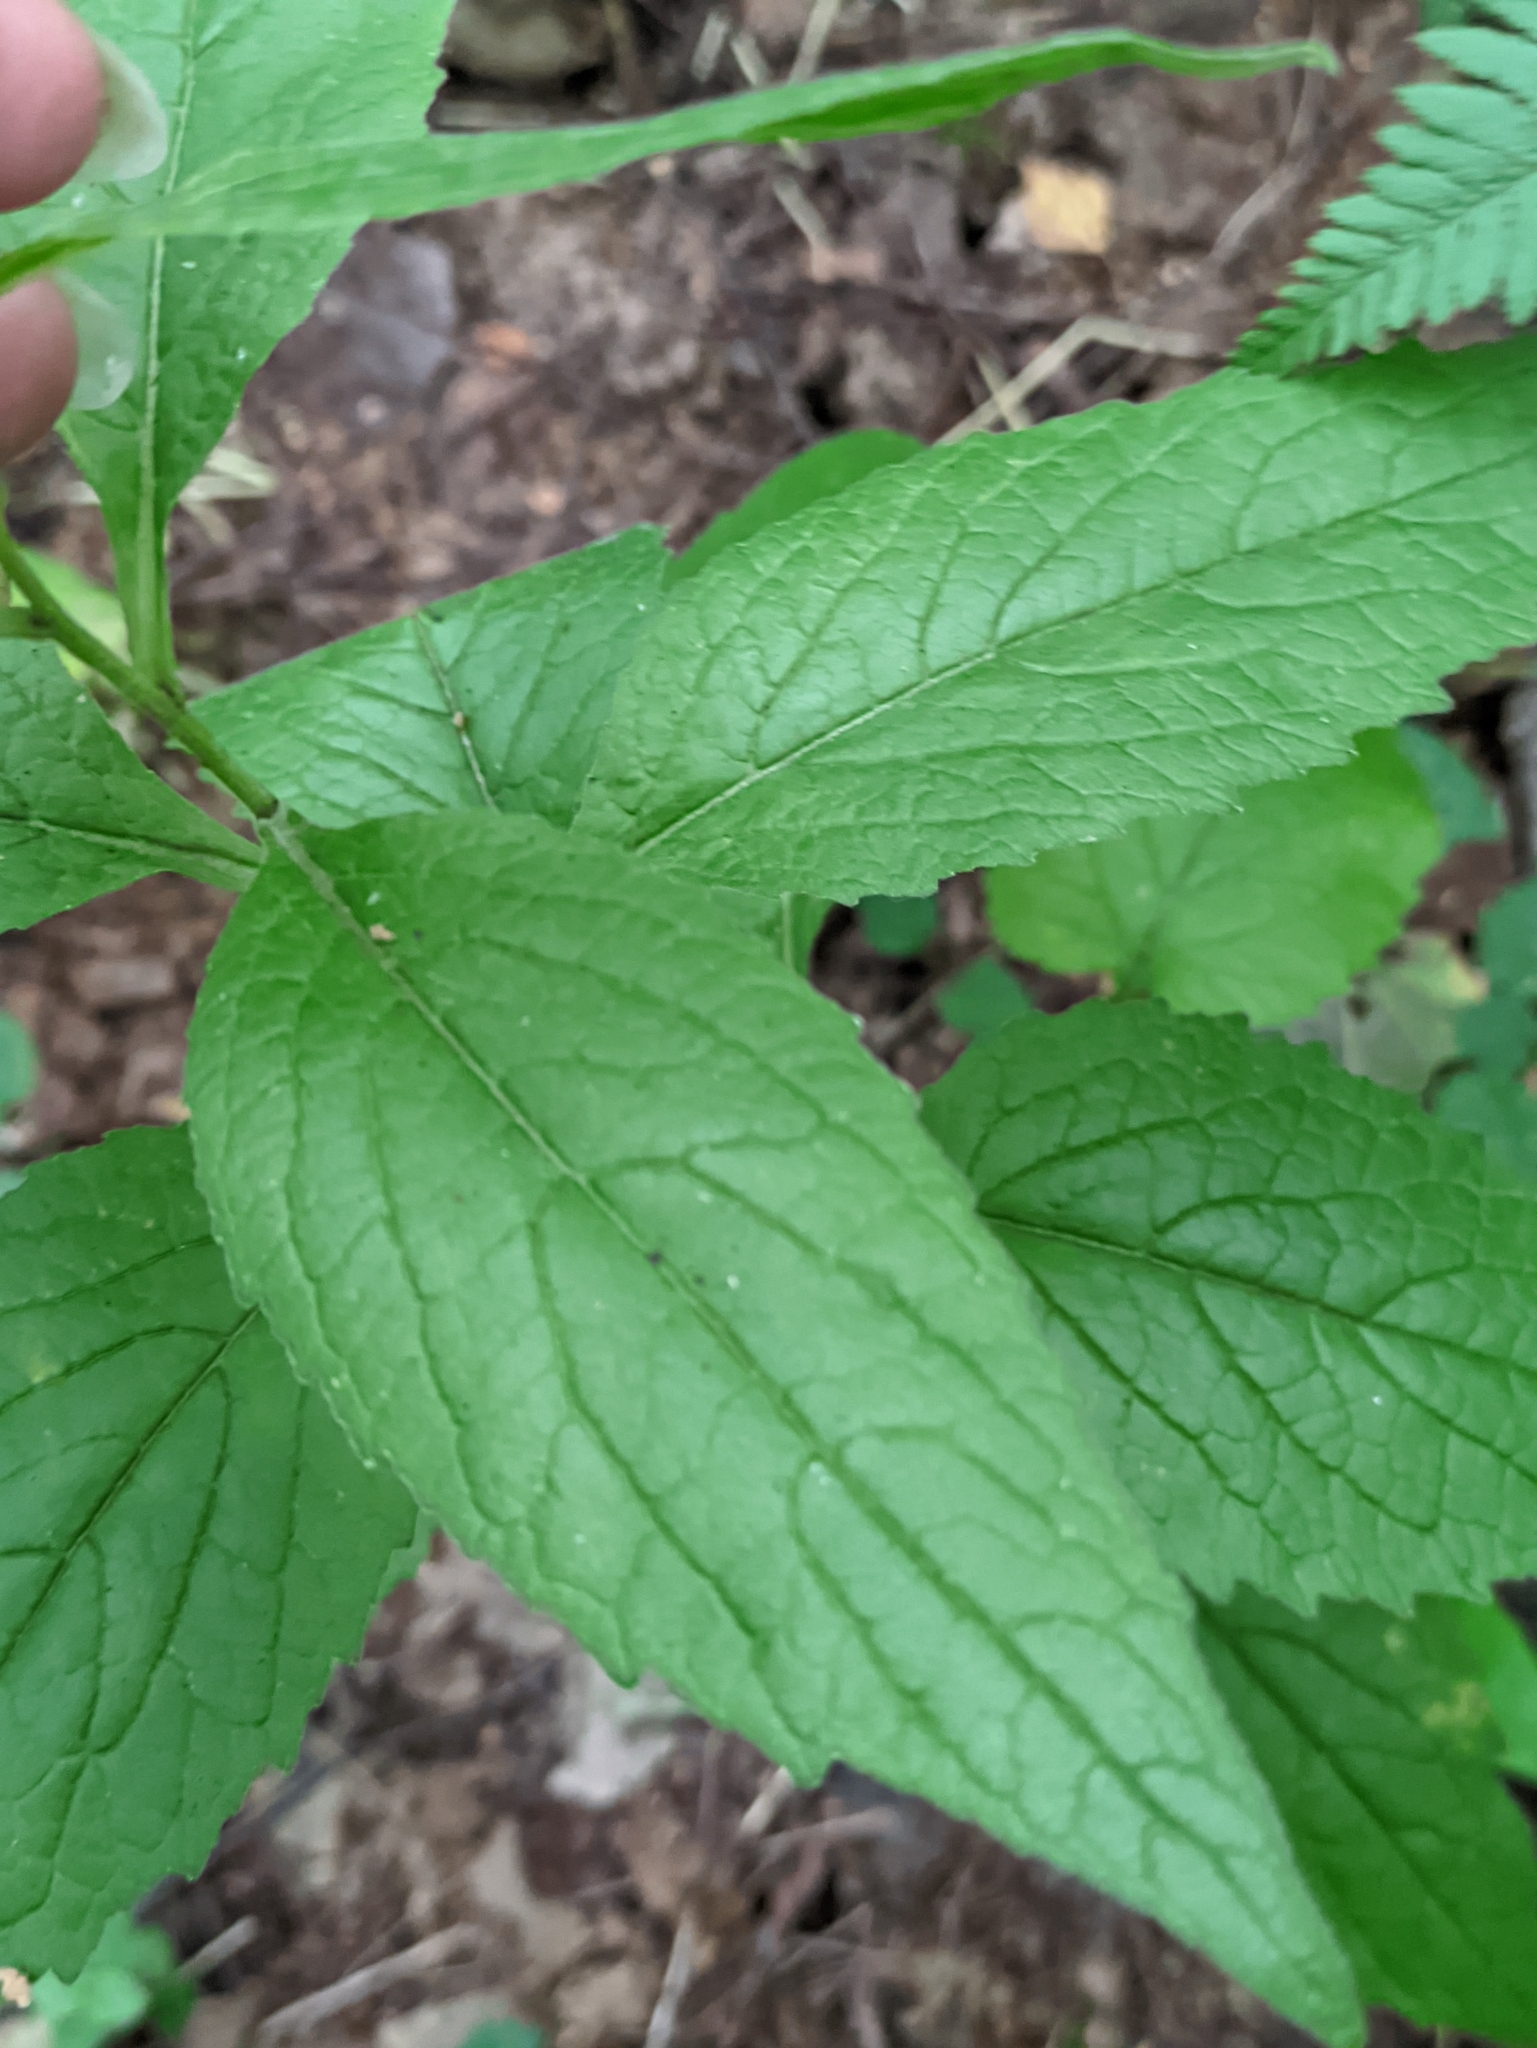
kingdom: Plantae
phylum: Tracheophyta
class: Magnoliopsida
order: Asterales
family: Campanulaceae
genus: Campanula
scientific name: Campanula latifolia
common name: Giant bellflower
